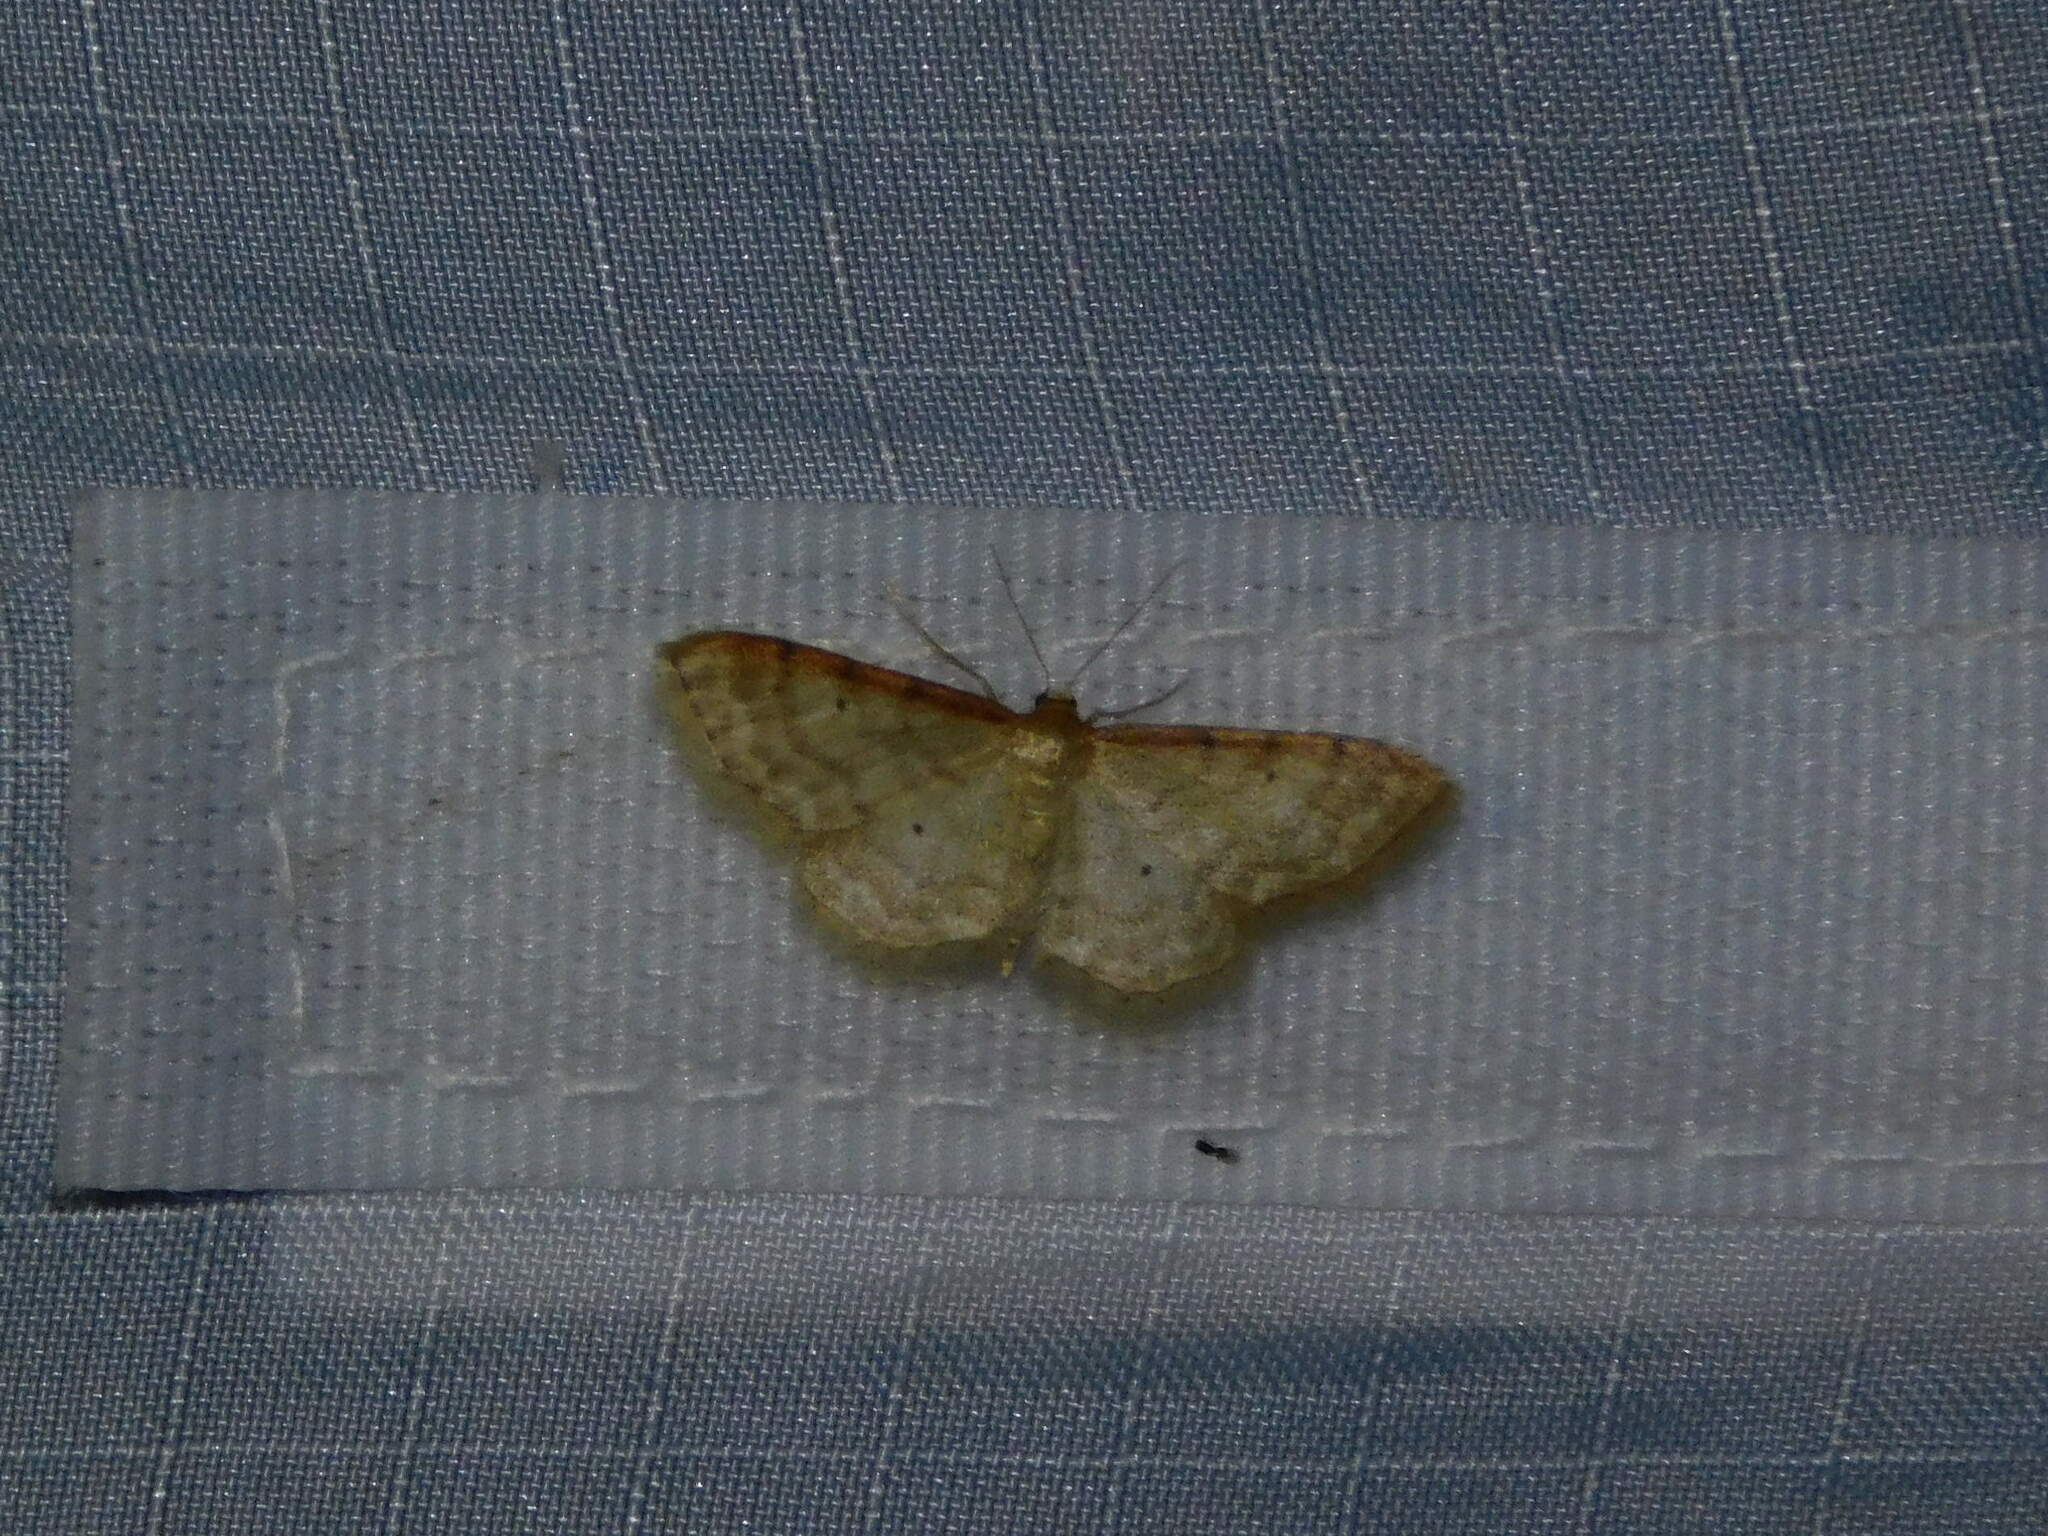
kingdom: Animalia
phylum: Arthropoda
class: Insecta
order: Lepidoptera
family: Geometridae
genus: Idaea
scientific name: Idaea fuscovenosa
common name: Dwarf cream wave
